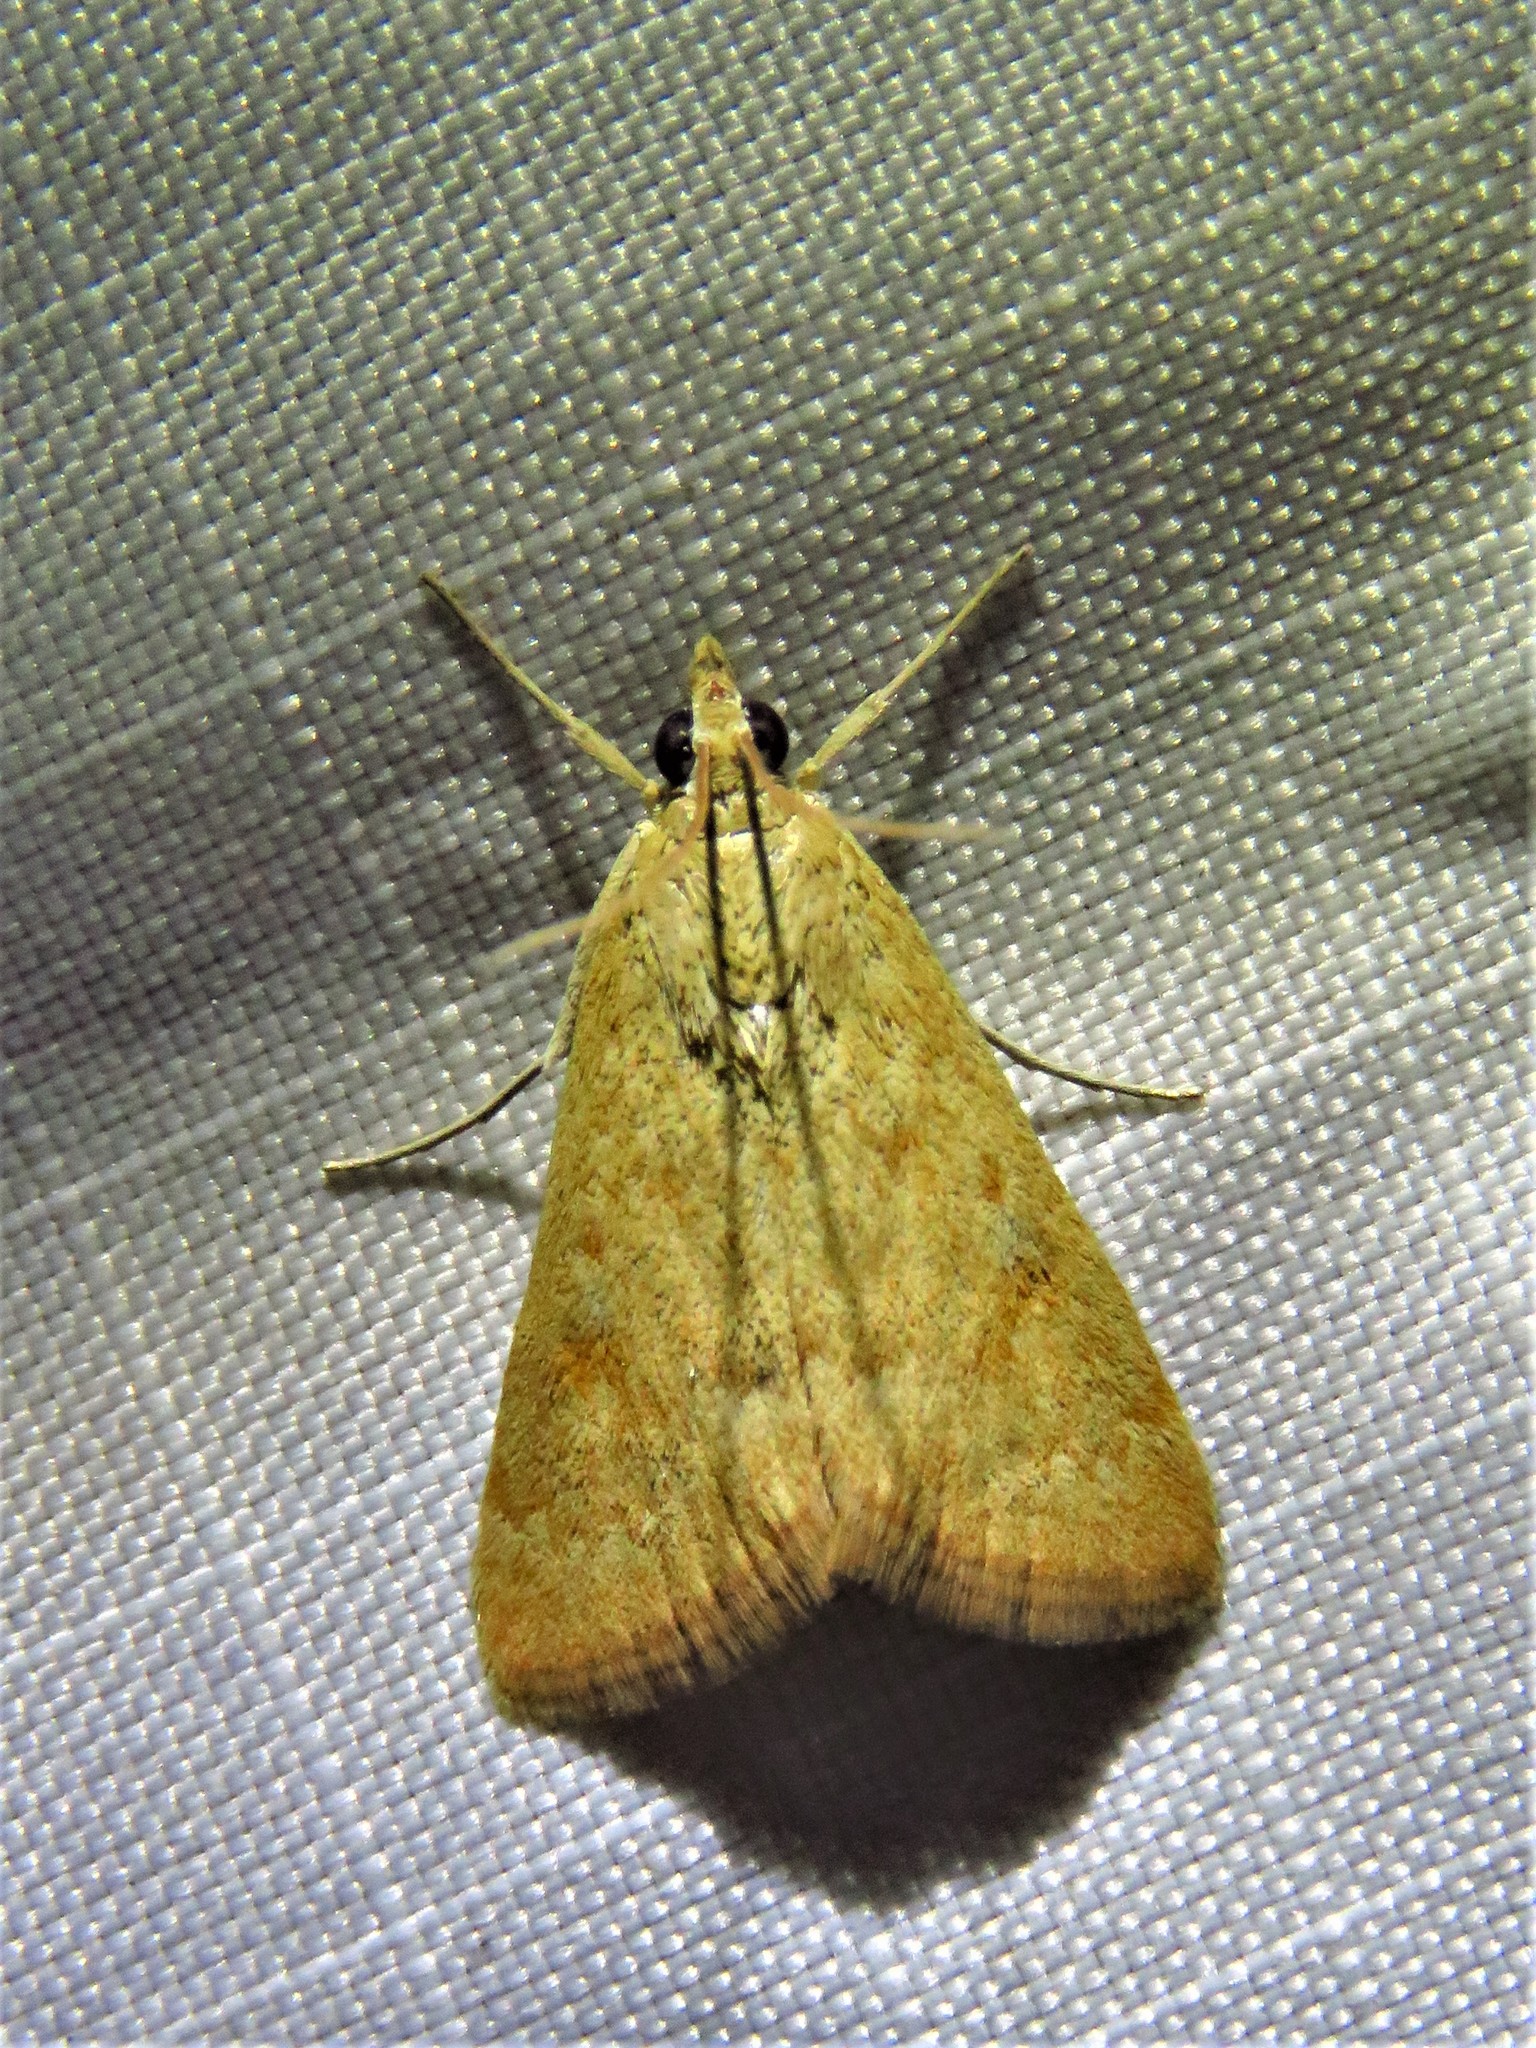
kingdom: Animalia
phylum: Arthropoda
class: Insecta
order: Lepidoptera
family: Crambidae
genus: Achyra
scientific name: Achyra rantalis
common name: Garden webworm
